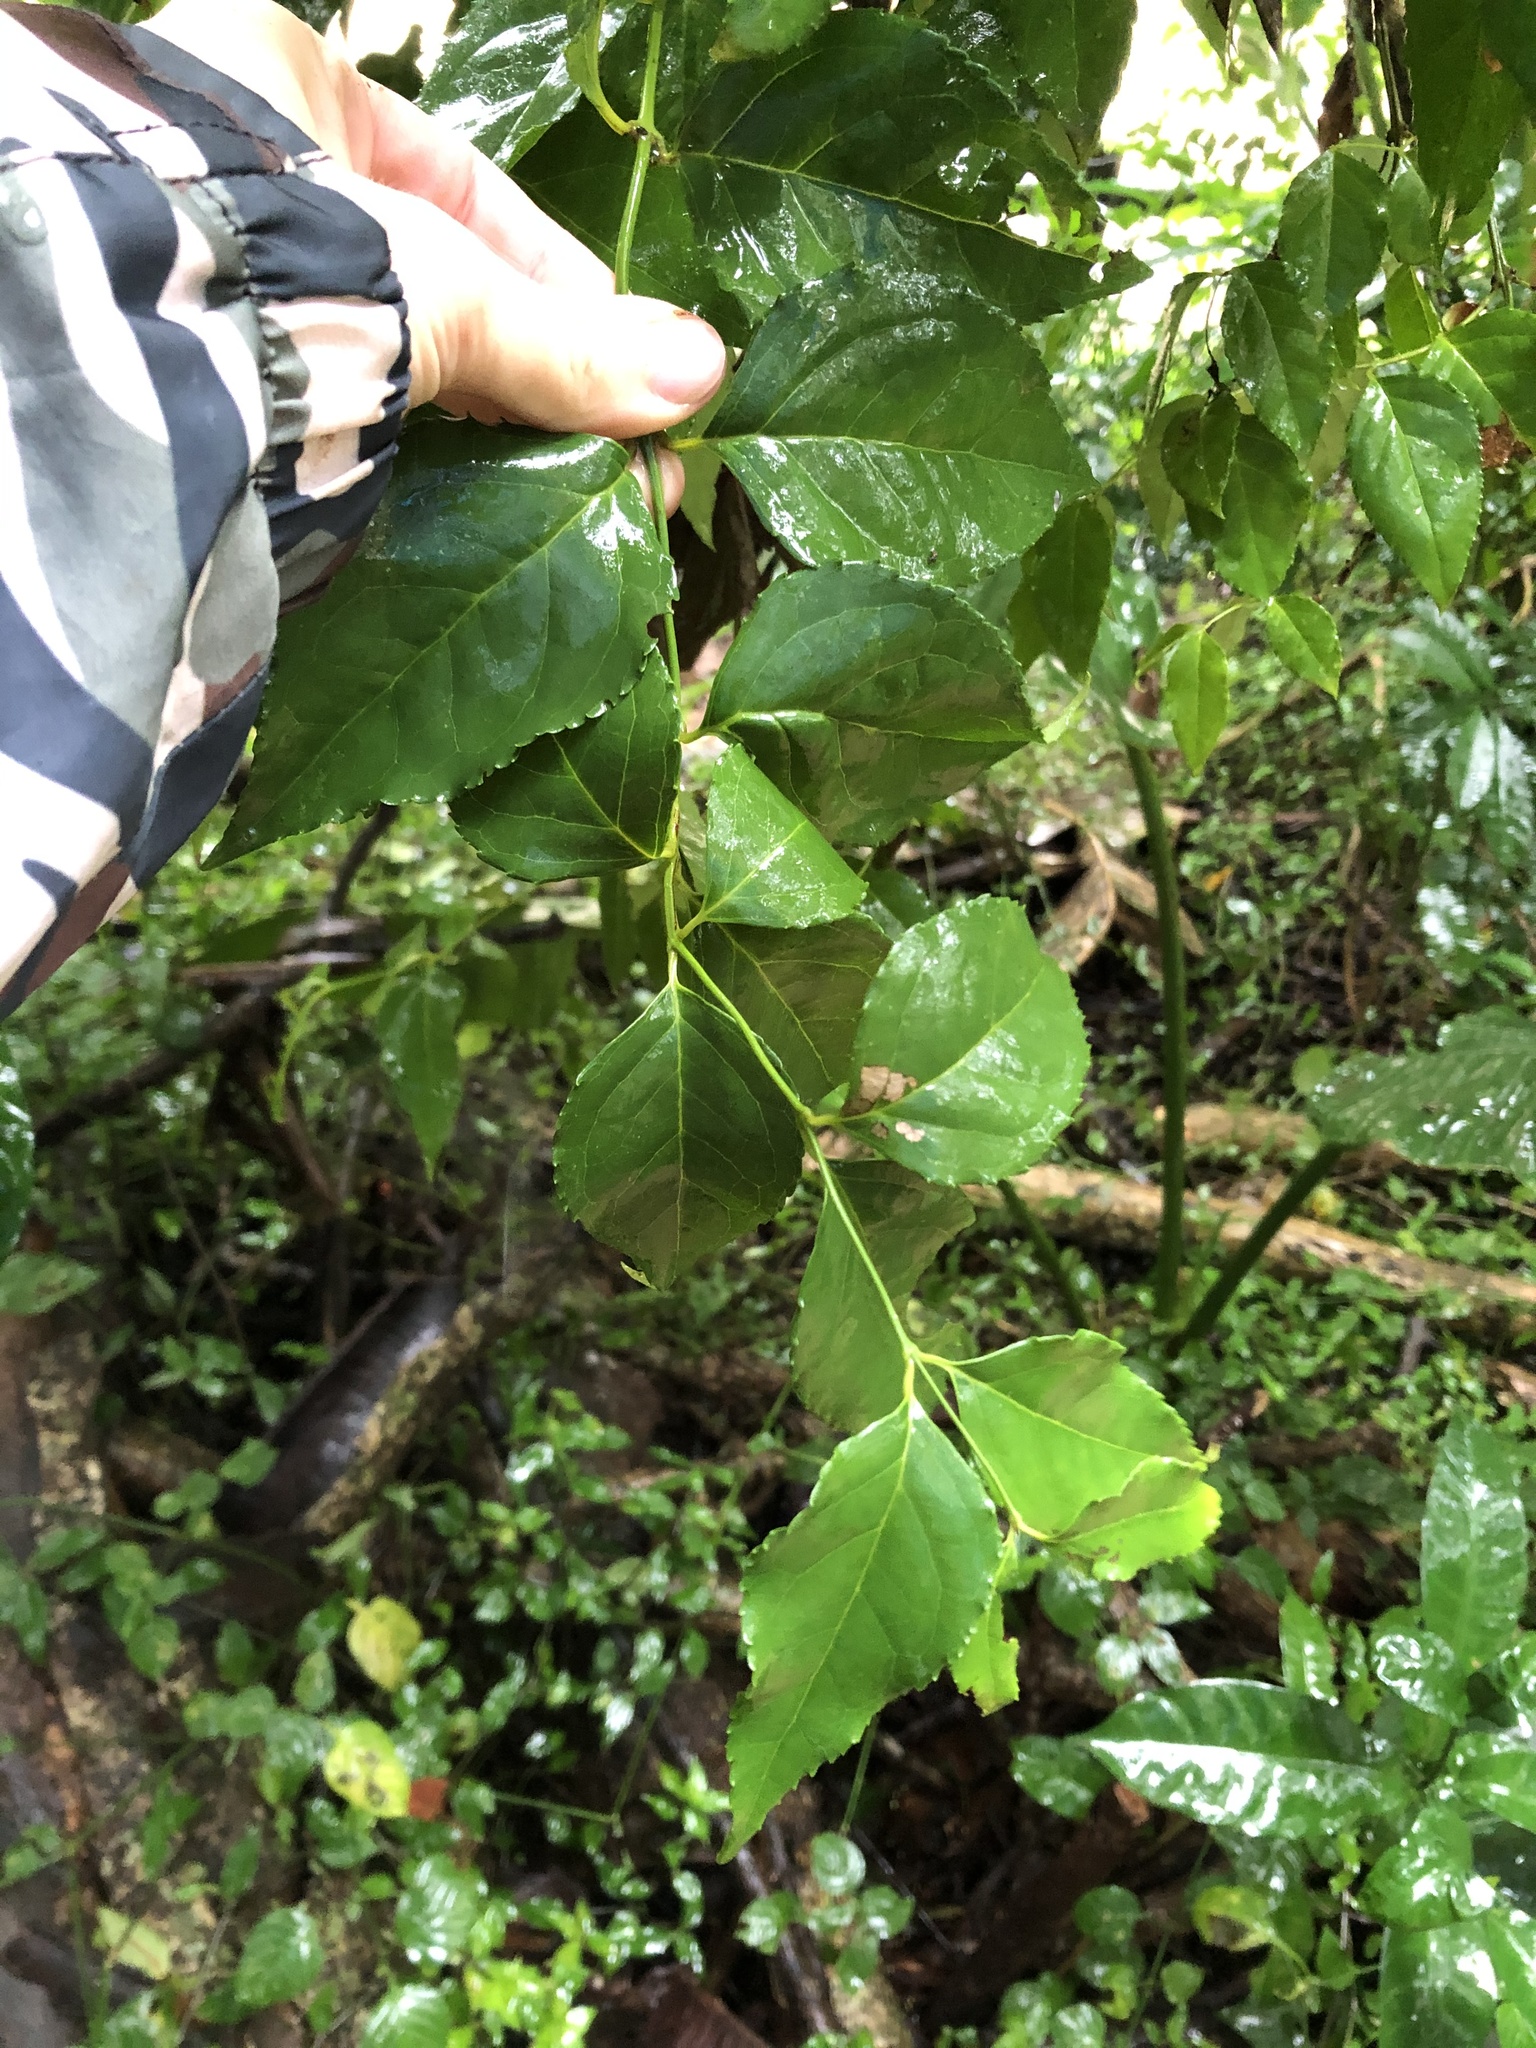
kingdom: Plantae
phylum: Tracheophyta
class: Magnoliopsida
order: Lamiales
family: Stilbaceae
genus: Halleria
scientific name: Halleria lucida
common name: Tree fuschia
